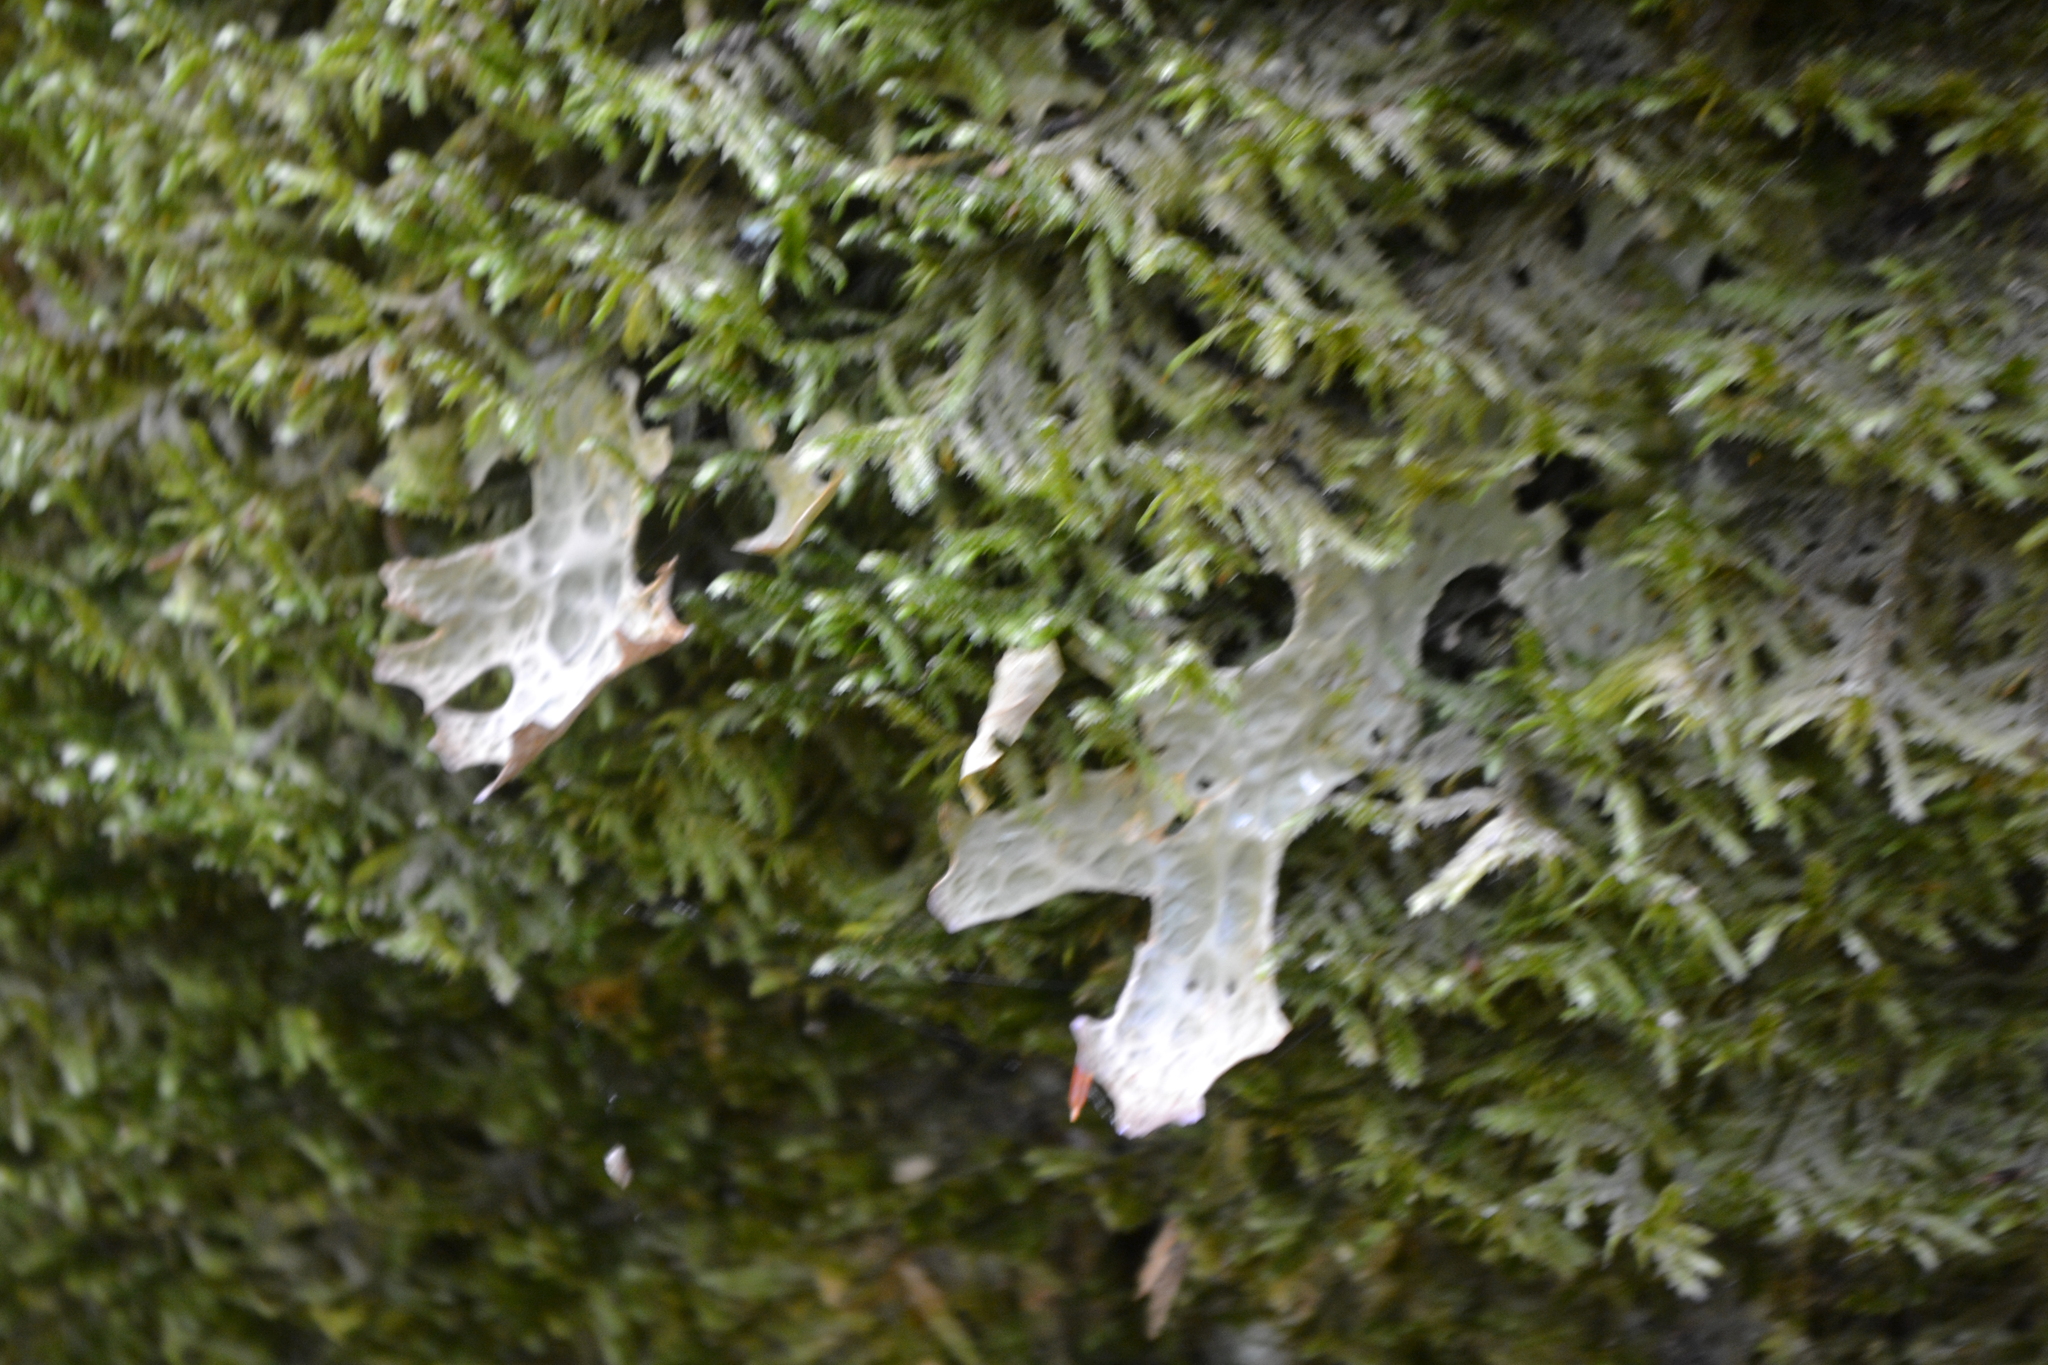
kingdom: Fungi
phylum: Ascomycota
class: Lecanoromycetes
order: Peltigerales
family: Lobariaceae
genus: Lobaria
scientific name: Lobaria pulmonaria
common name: Lungwort
